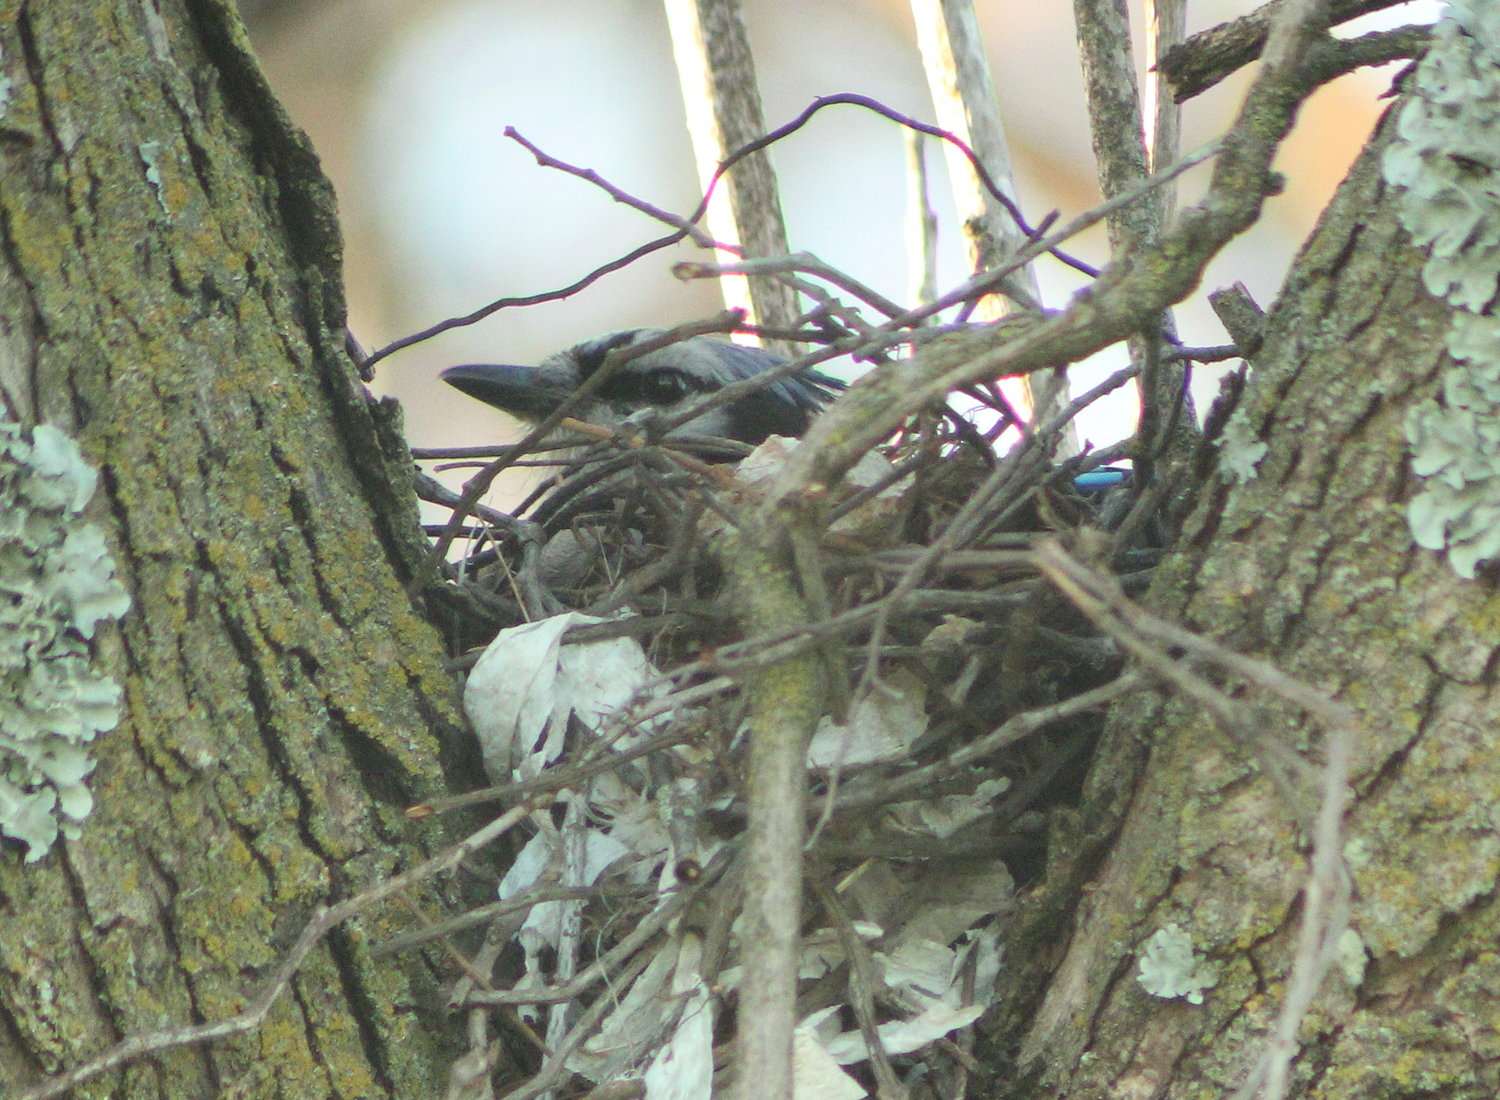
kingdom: Animalia
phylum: Chordata
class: Aves
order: Passeriformes
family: Corvidae
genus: Cyanocitta
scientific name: Cyanocitta cristata
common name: Blue jay
